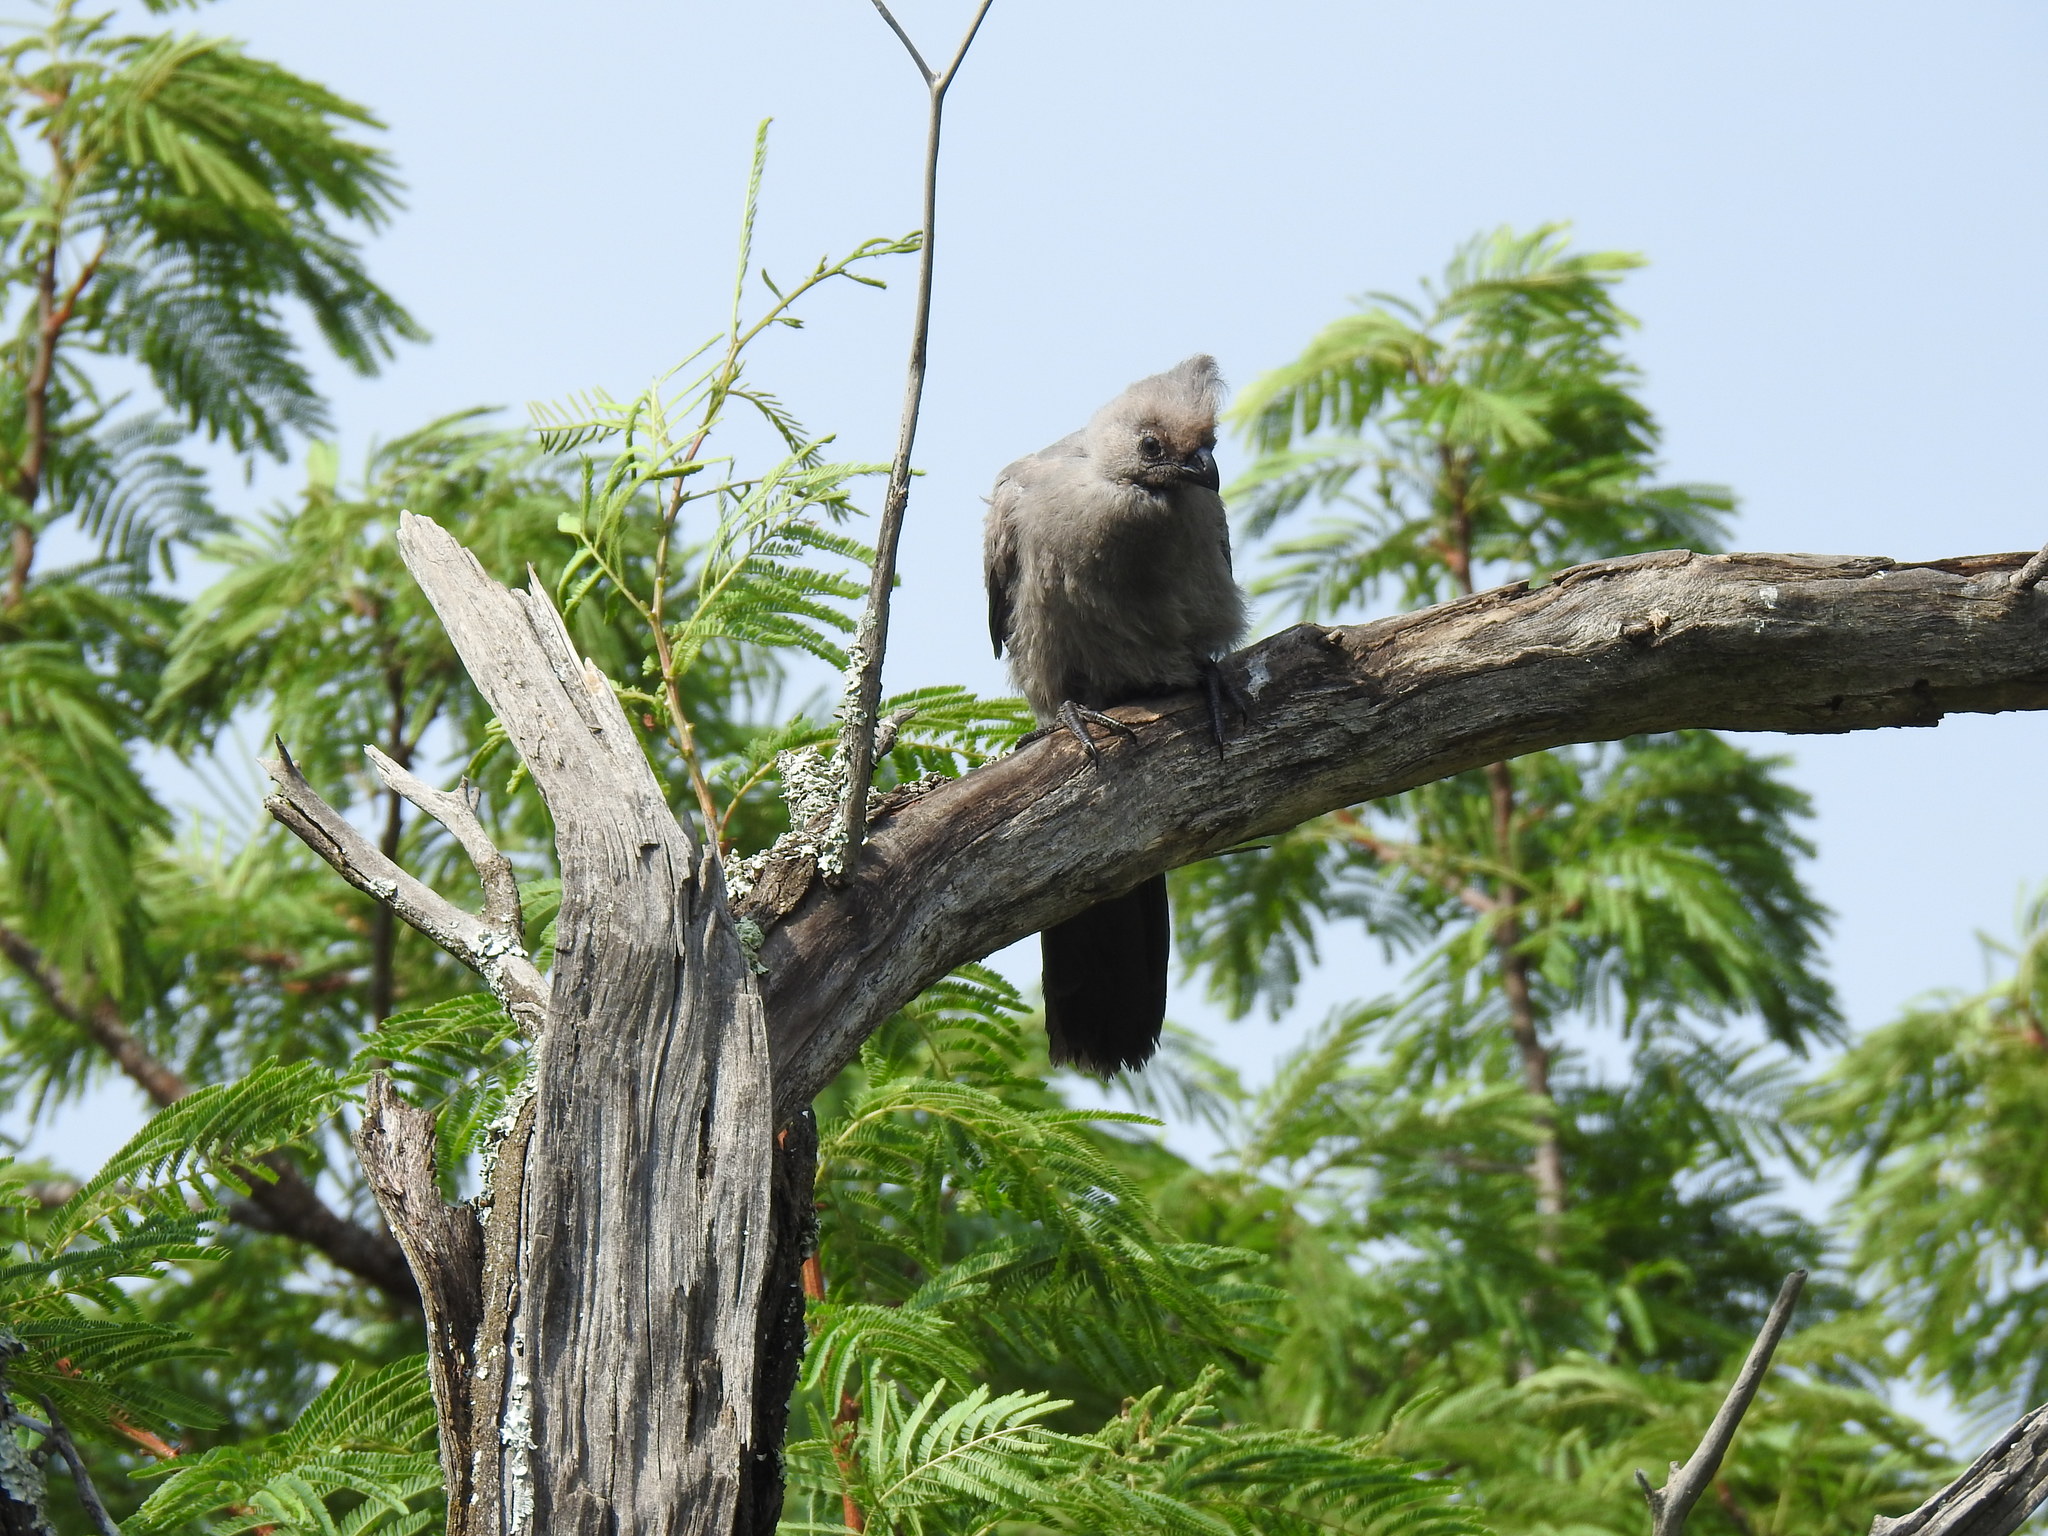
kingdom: Animalia
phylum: Chordata
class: Aves
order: Musophagiformes
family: Musophagidae
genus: Corythaixoides
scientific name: Corythaixoides concolor
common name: Grey go-away-bird
